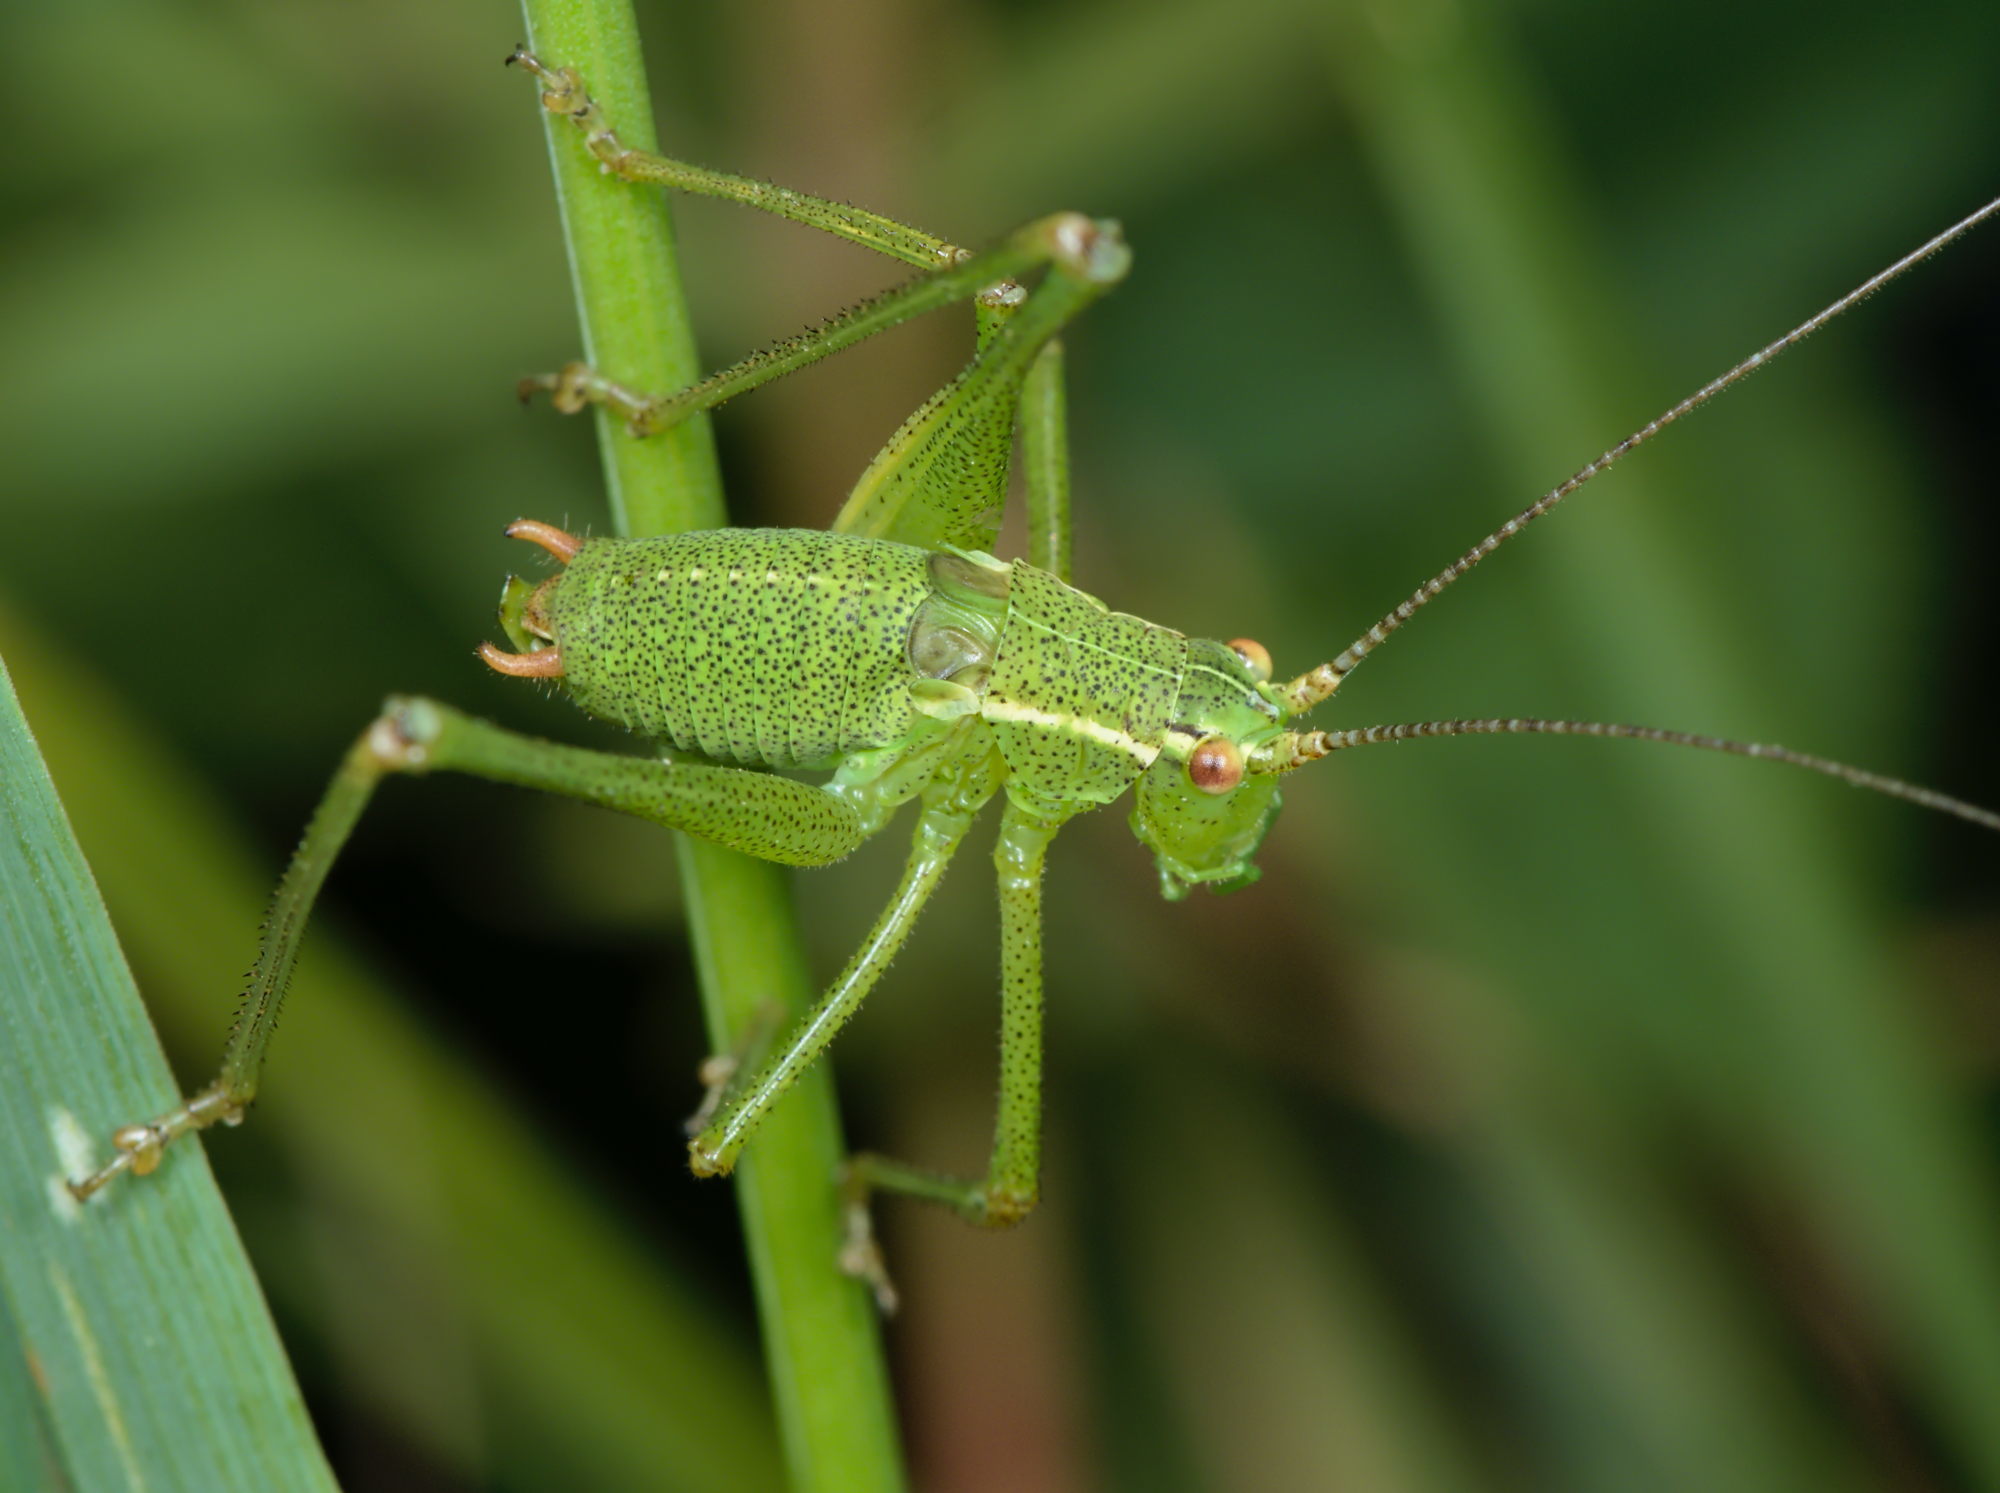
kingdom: Animalia
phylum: Arthropoda
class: Insecta
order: Orthoptera
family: Tettigoniidae
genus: Leptophyes
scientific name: Leptophyes punctatissima
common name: Speckled bush-cricket
